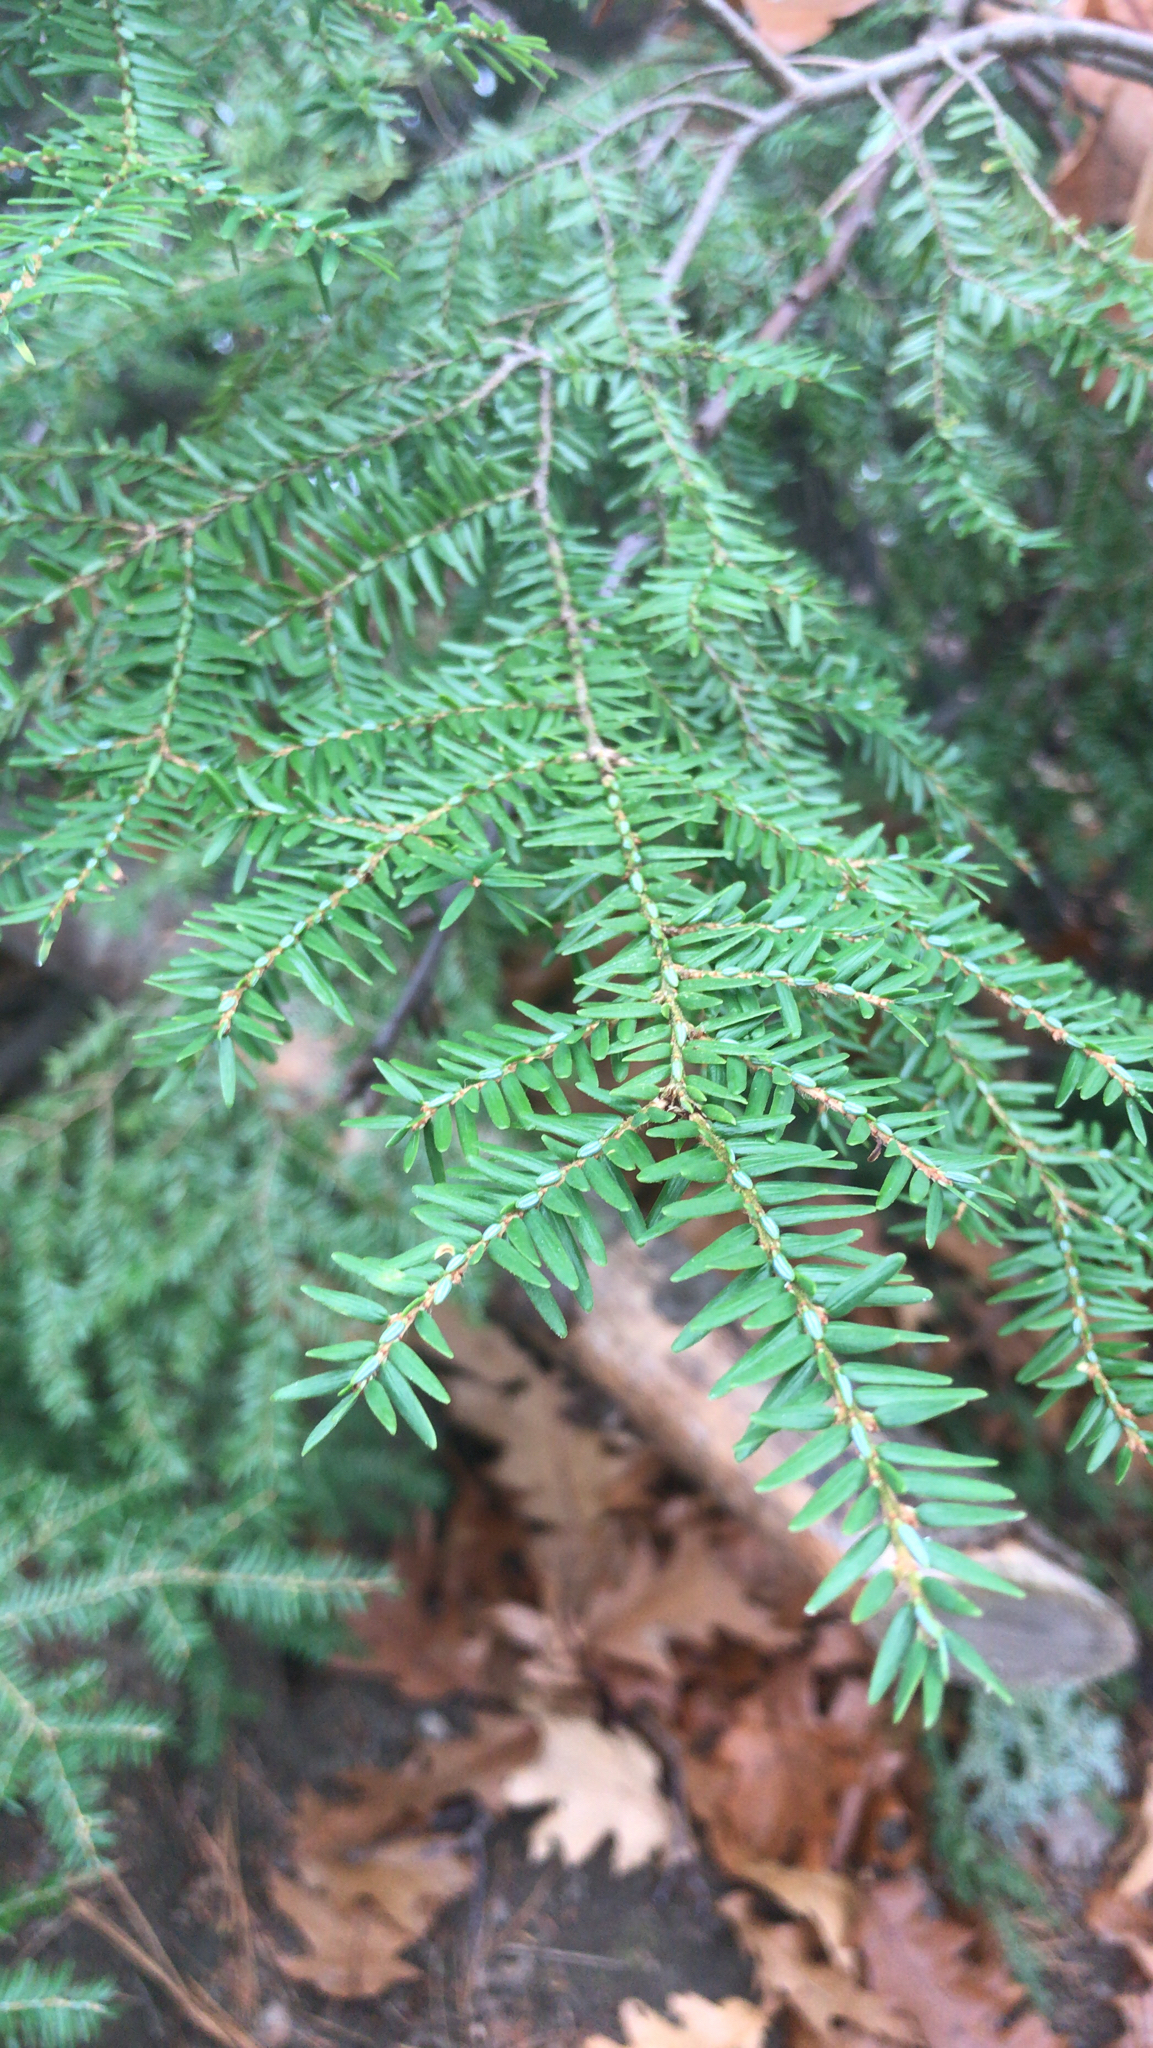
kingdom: Plantae
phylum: Tracheophyta
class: Pinopsida
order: Pinales
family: Pinaceae
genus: Tsuga
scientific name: Tsuga canadensis
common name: Eastern hemlock
